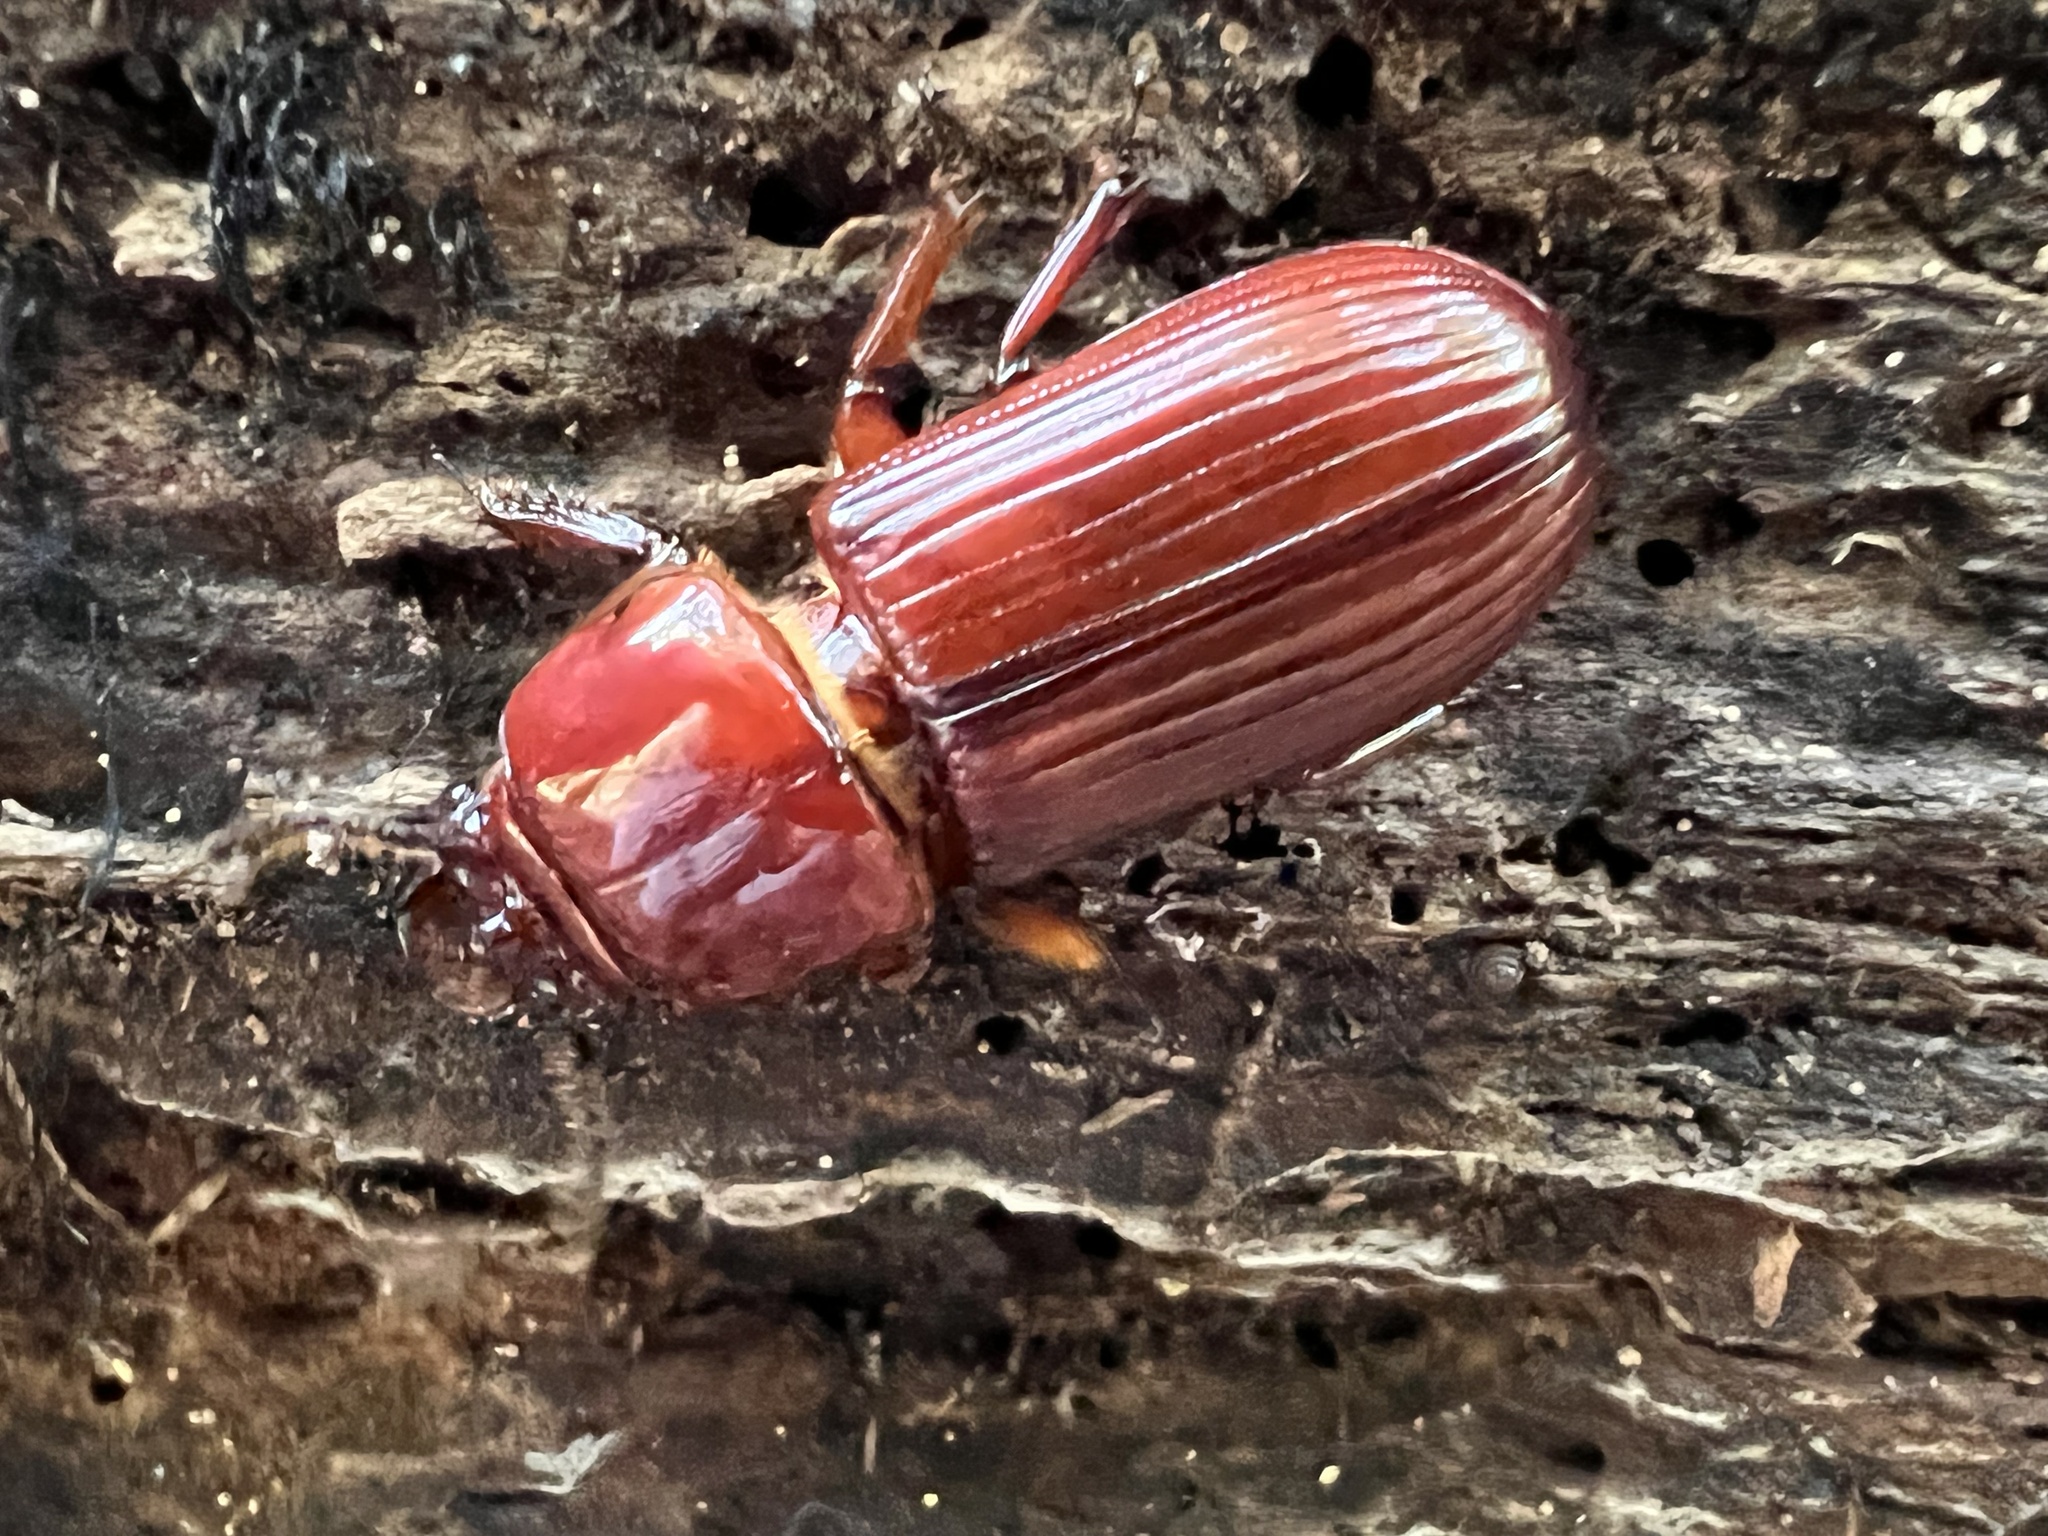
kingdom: Animalia
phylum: Arthropoda
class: Insecta
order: Coleoptera
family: Passalidae
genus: Odontotaenius
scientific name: Odontotaenius disjunctus
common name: Patent leather beetle
